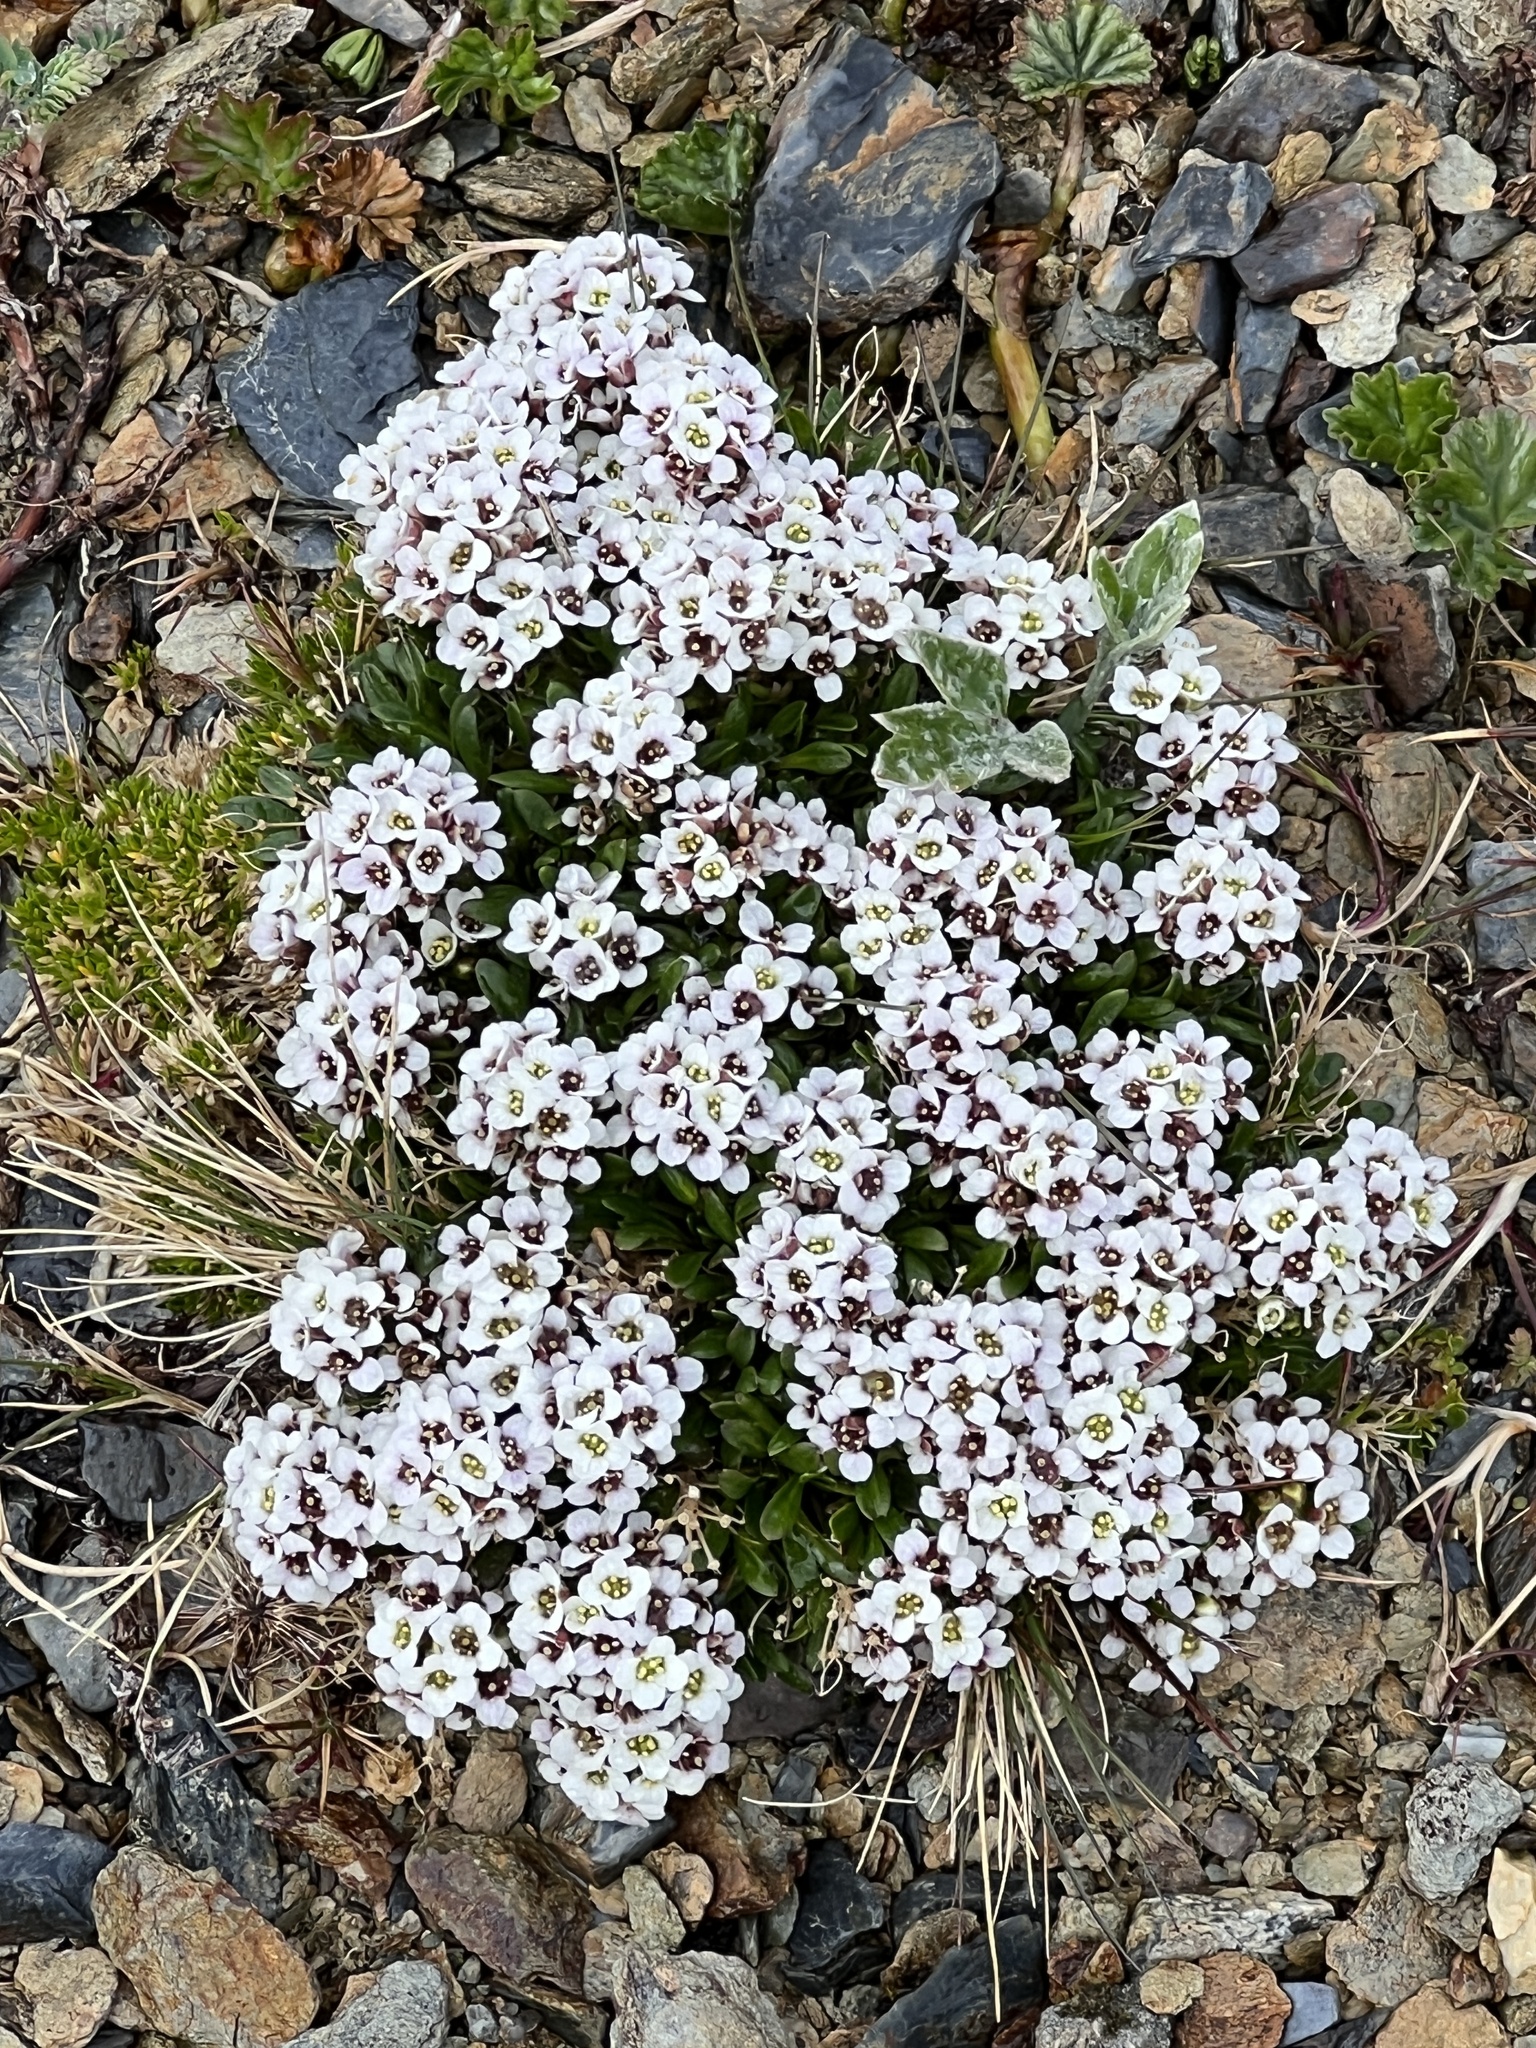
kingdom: Plantae
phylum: Tracheophyta
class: Magnoliopsida
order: Brassicales
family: Brassicaceae
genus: Onuris
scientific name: Onuris alismatifolia
